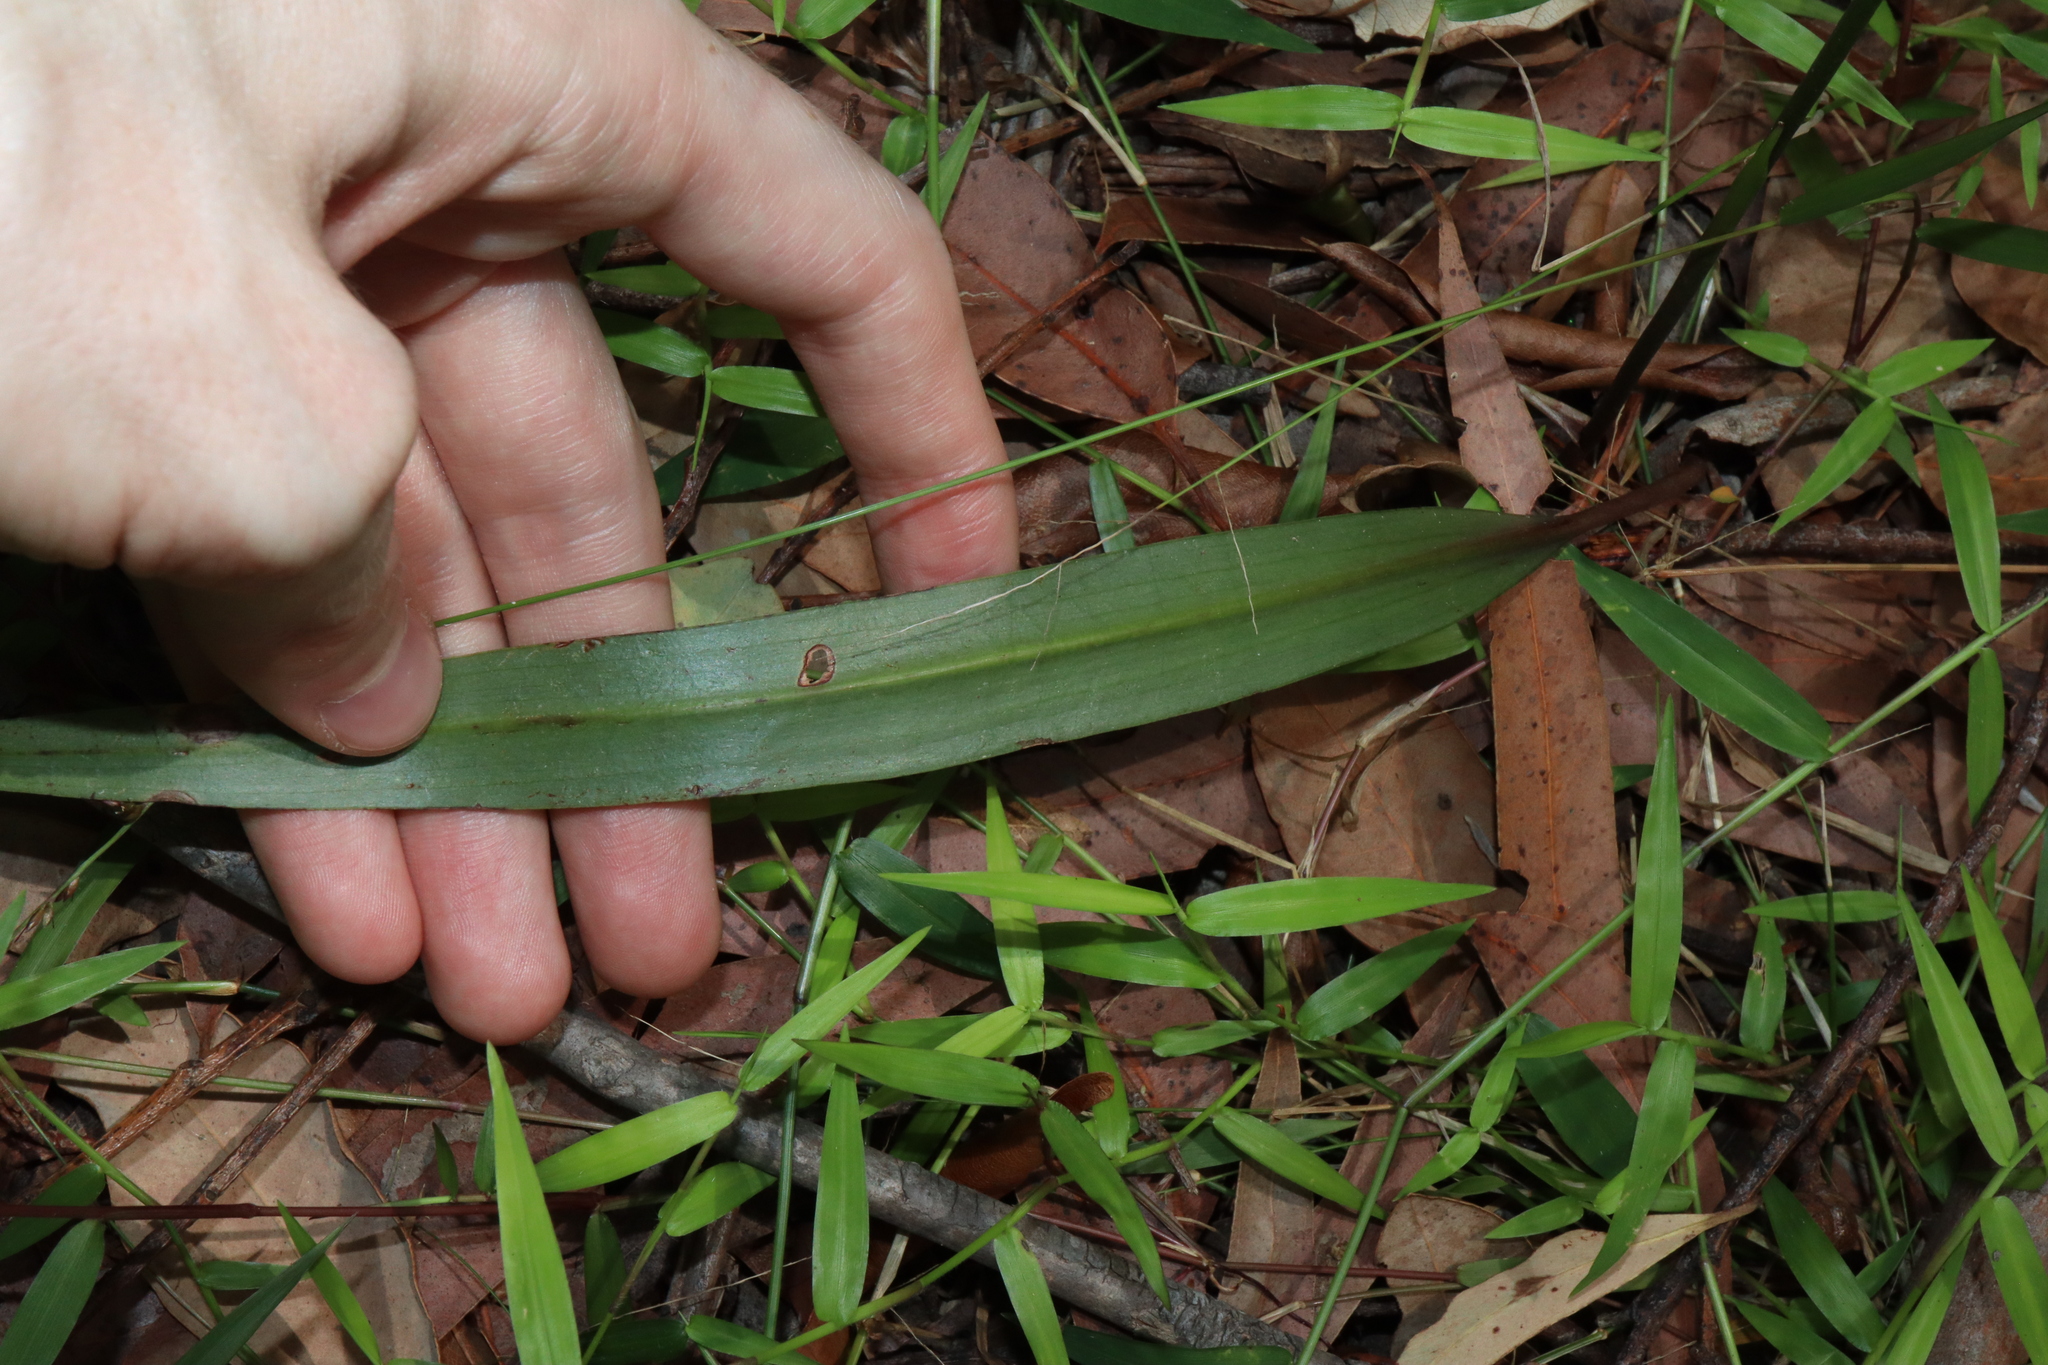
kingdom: Plantae
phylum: Tracheophyta
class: Liliopsida
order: Asparagales
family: Orchidaceae
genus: Cryptostylis
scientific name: Cryptostylis subulata
